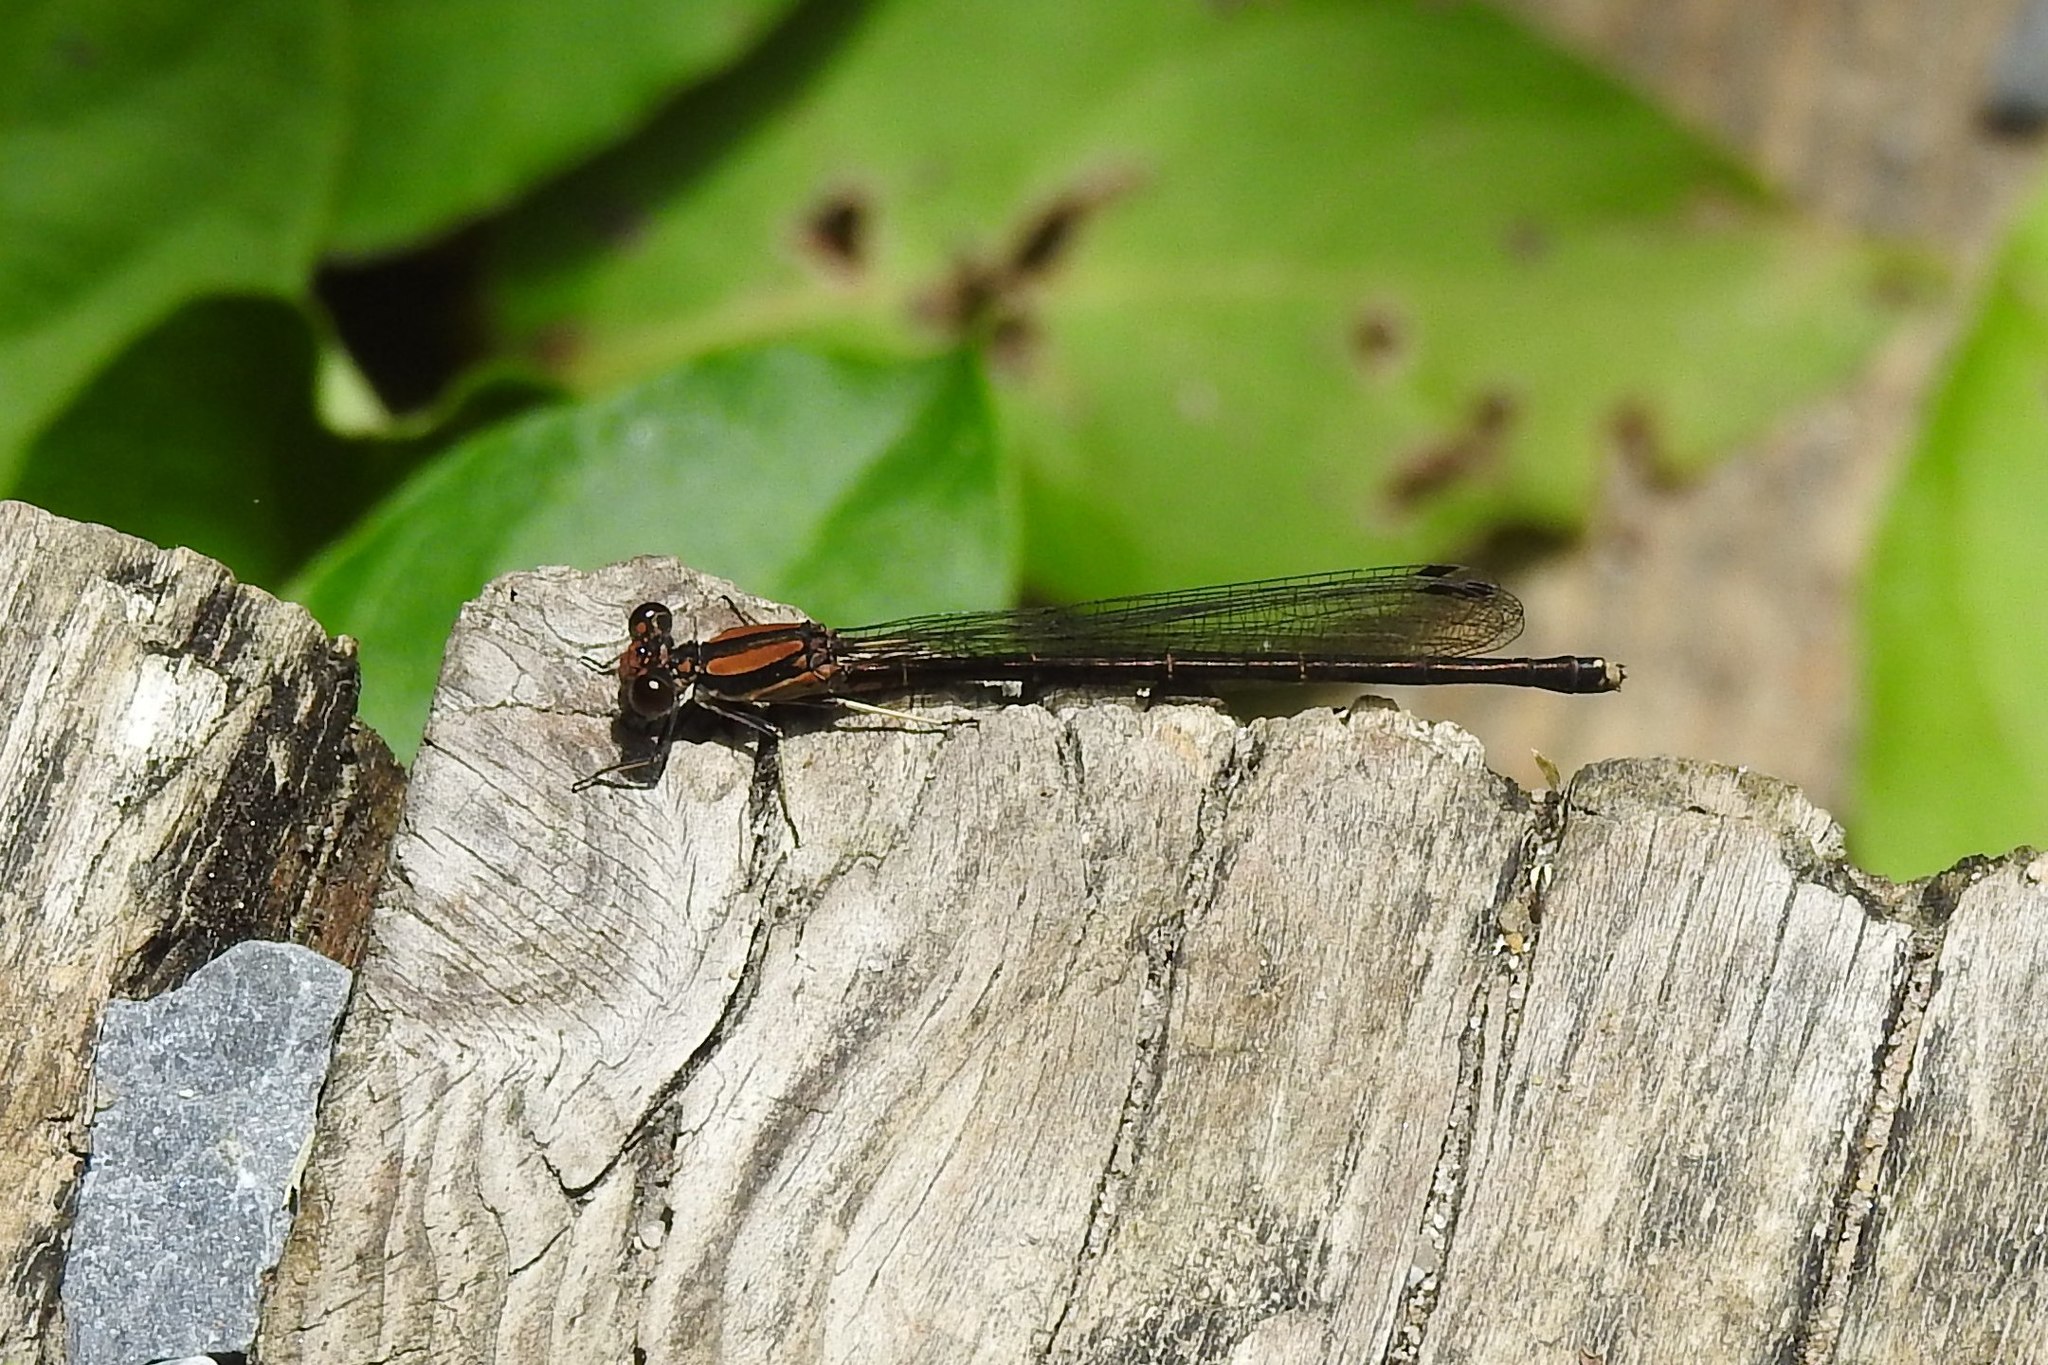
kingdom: Animalia
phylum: Arthropoda
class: Insecta
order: Odonata
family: Coenagrionidae
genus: Argia
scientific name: Argia tibialis
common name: Blue-tipped dancer
